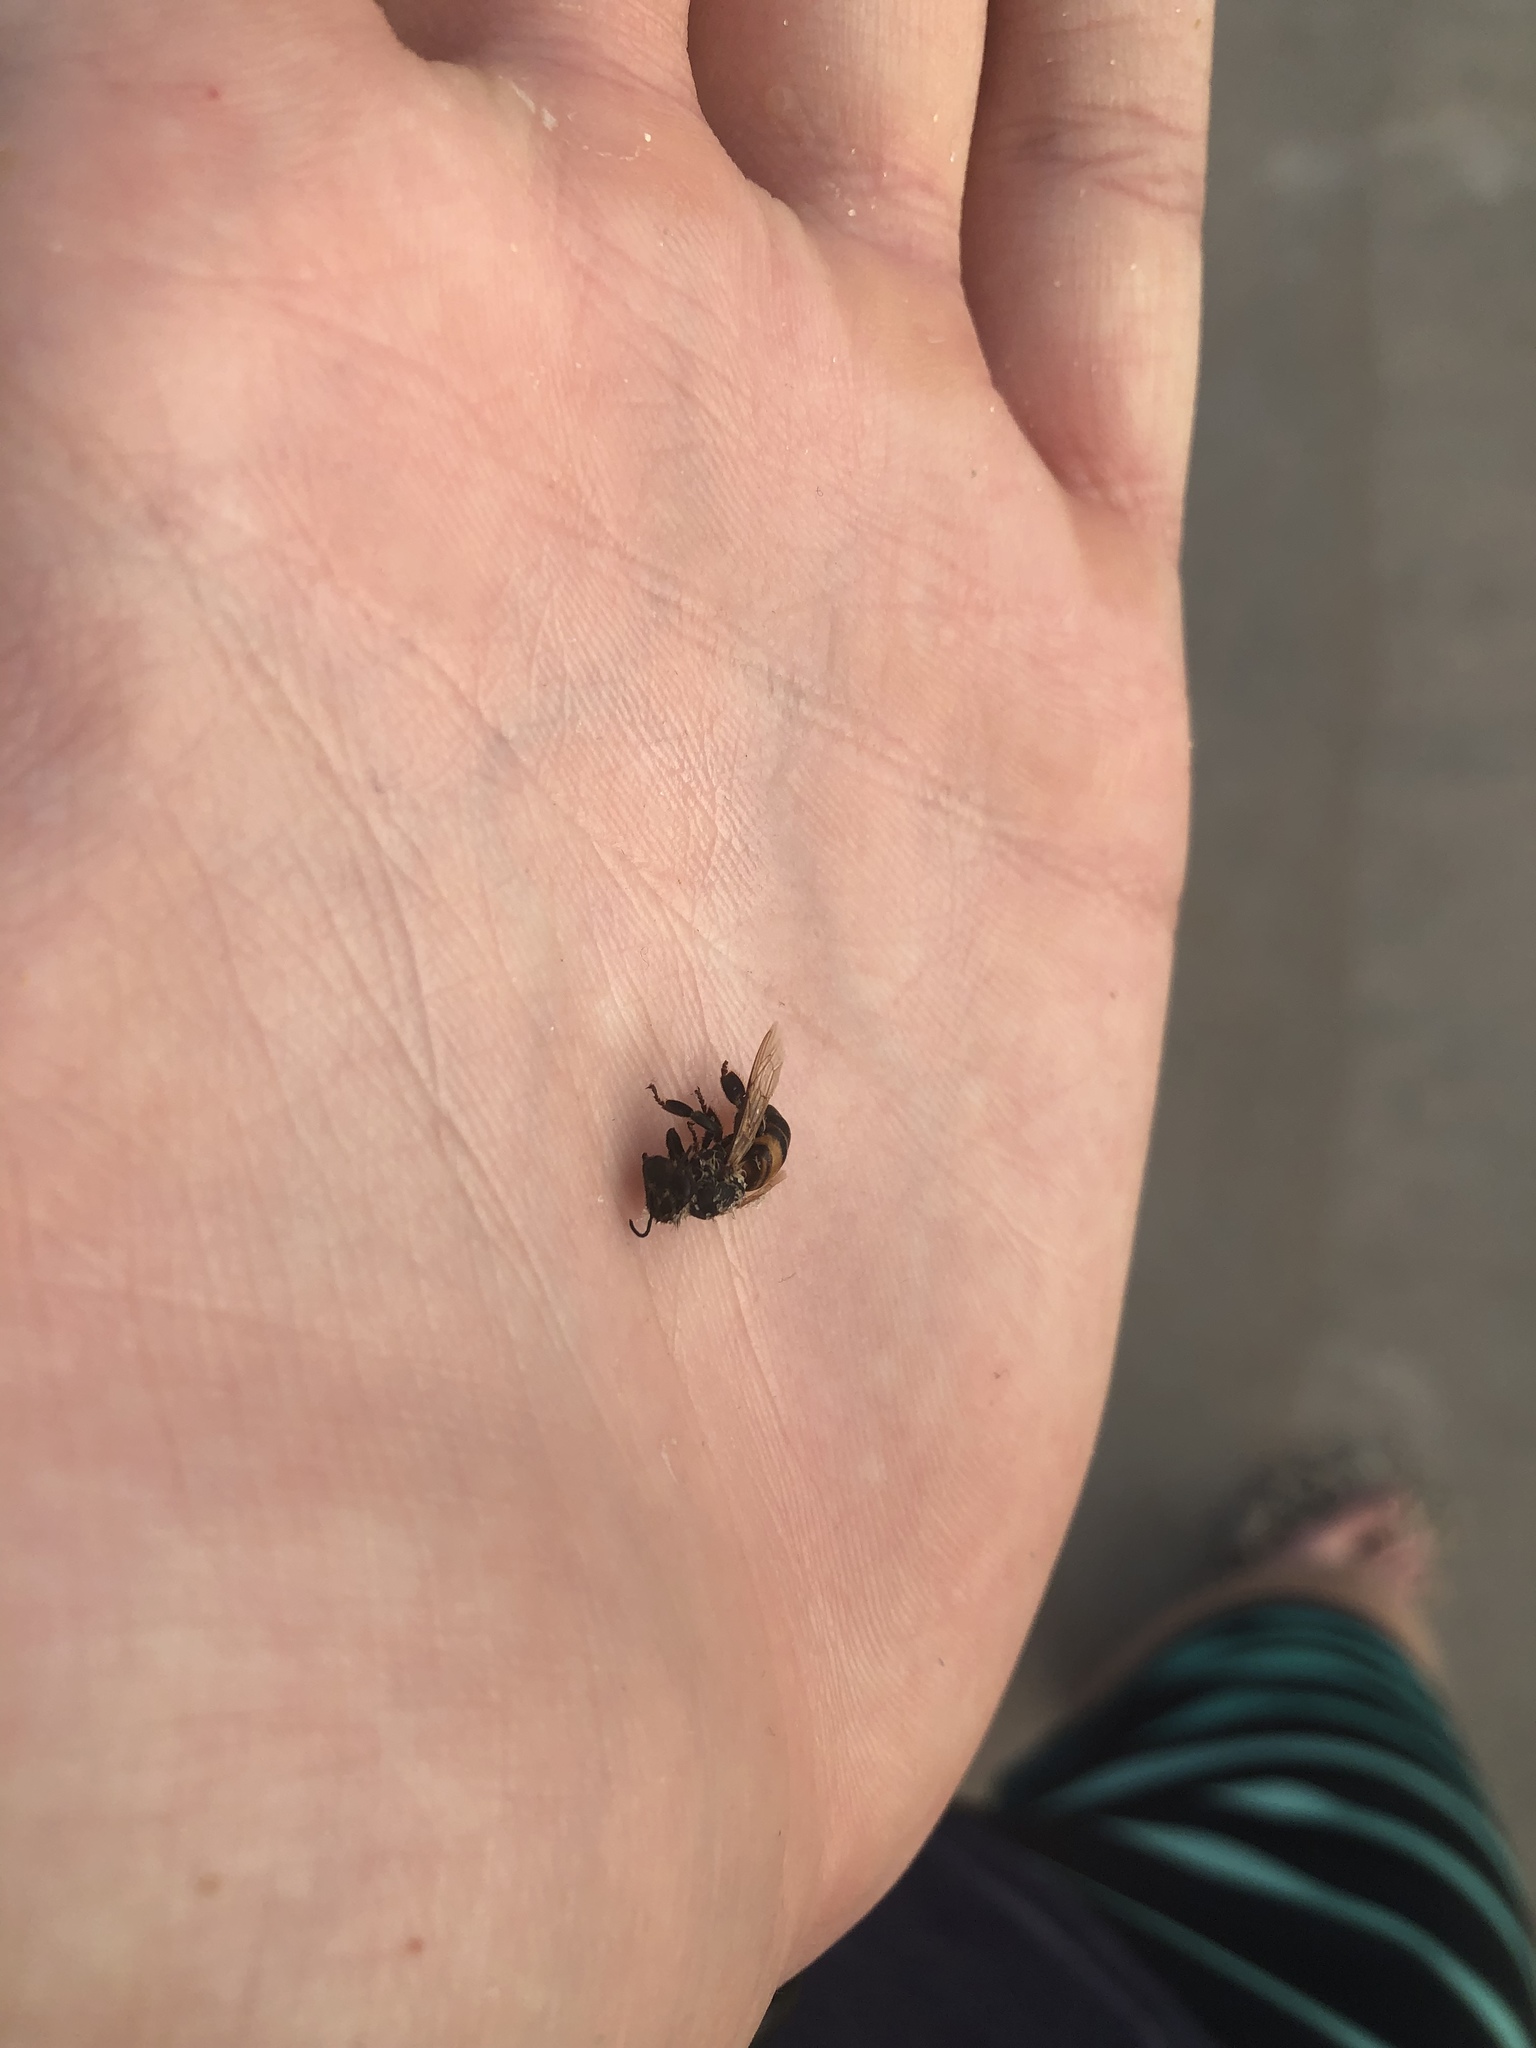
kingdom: Animalia
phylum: Arthropoda
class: Insecta
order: Hymenoptera
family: Apidae
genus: Apis
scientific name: Apis mellifera
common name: Honey bee
